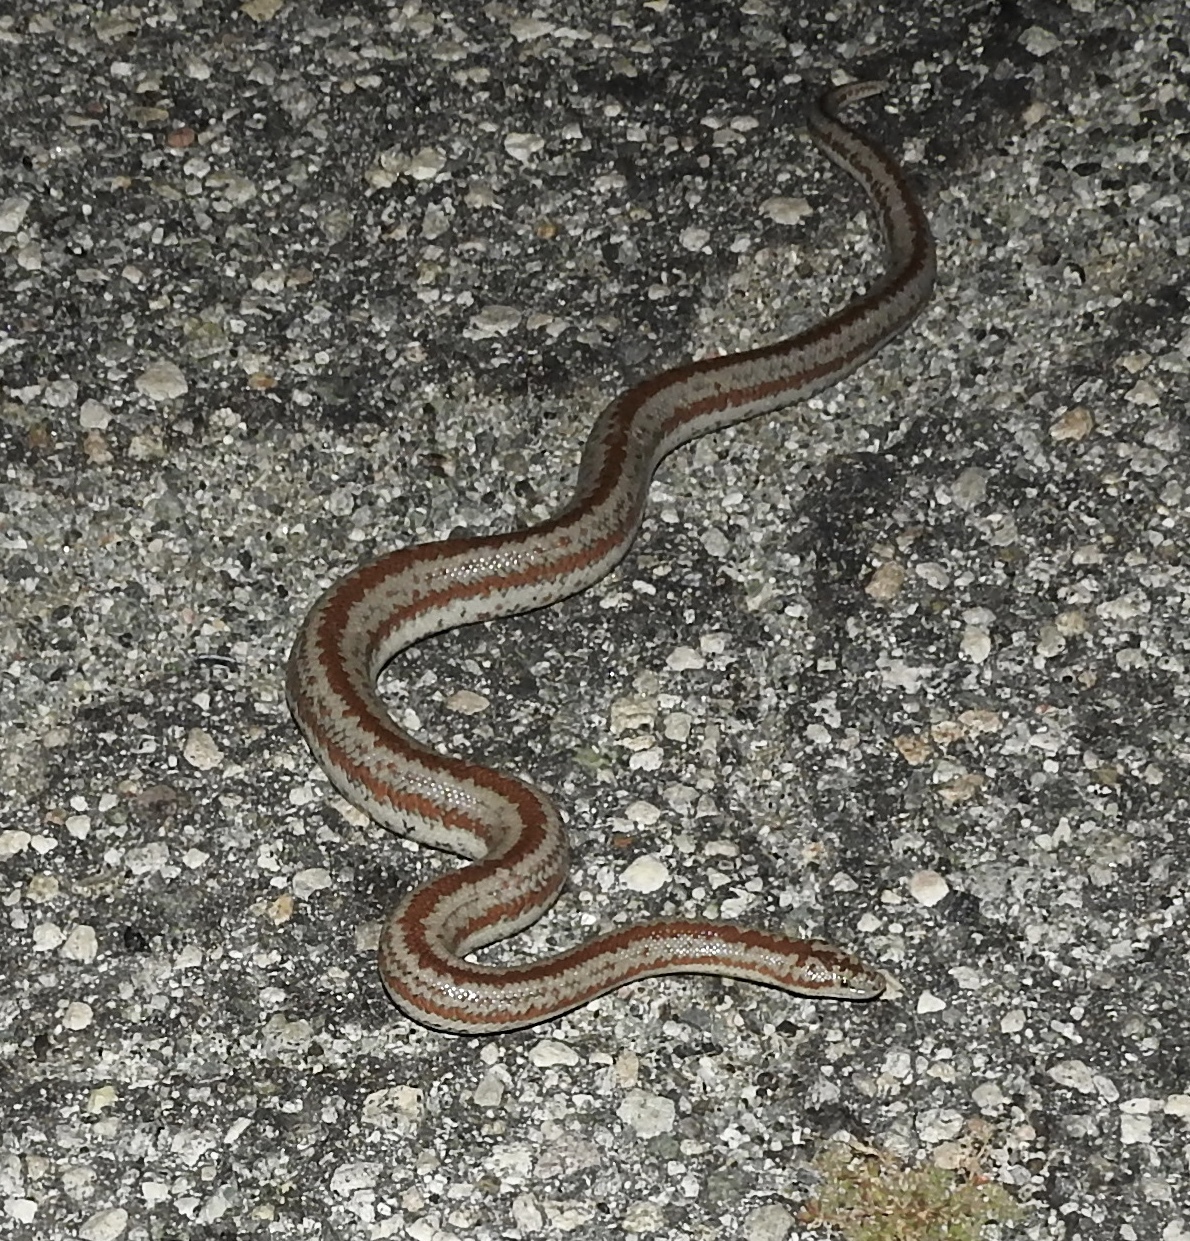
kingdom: Animalia
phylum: Chordata
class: Squamata
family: Boidae
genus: Lichanura
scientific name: Lichanura orcutti
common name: Northern three-lined boa
